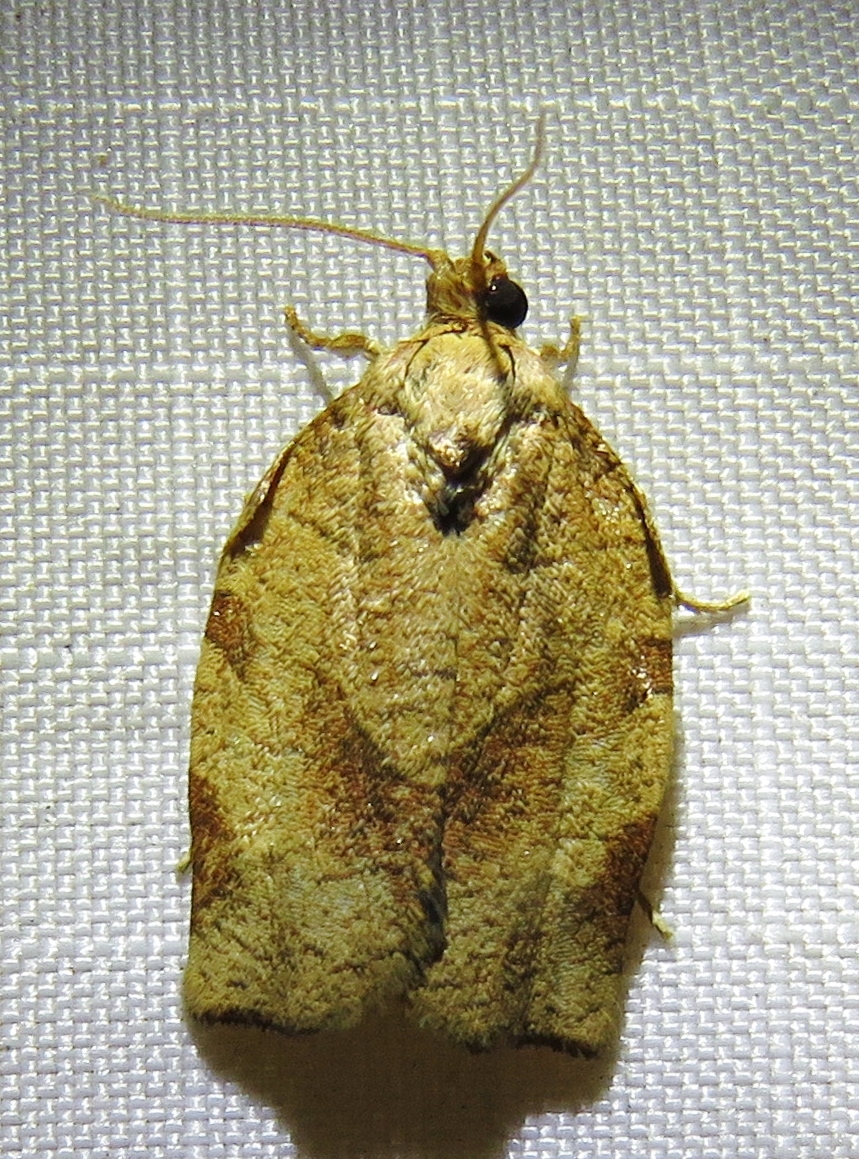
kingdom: Animalia
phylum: Arthropoda
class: Insecta
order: Lepidoptera
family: Tortricidae
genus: Choristoneura
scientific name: Choristoneura rosaceana
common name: Oblique-banded leafroller moth
